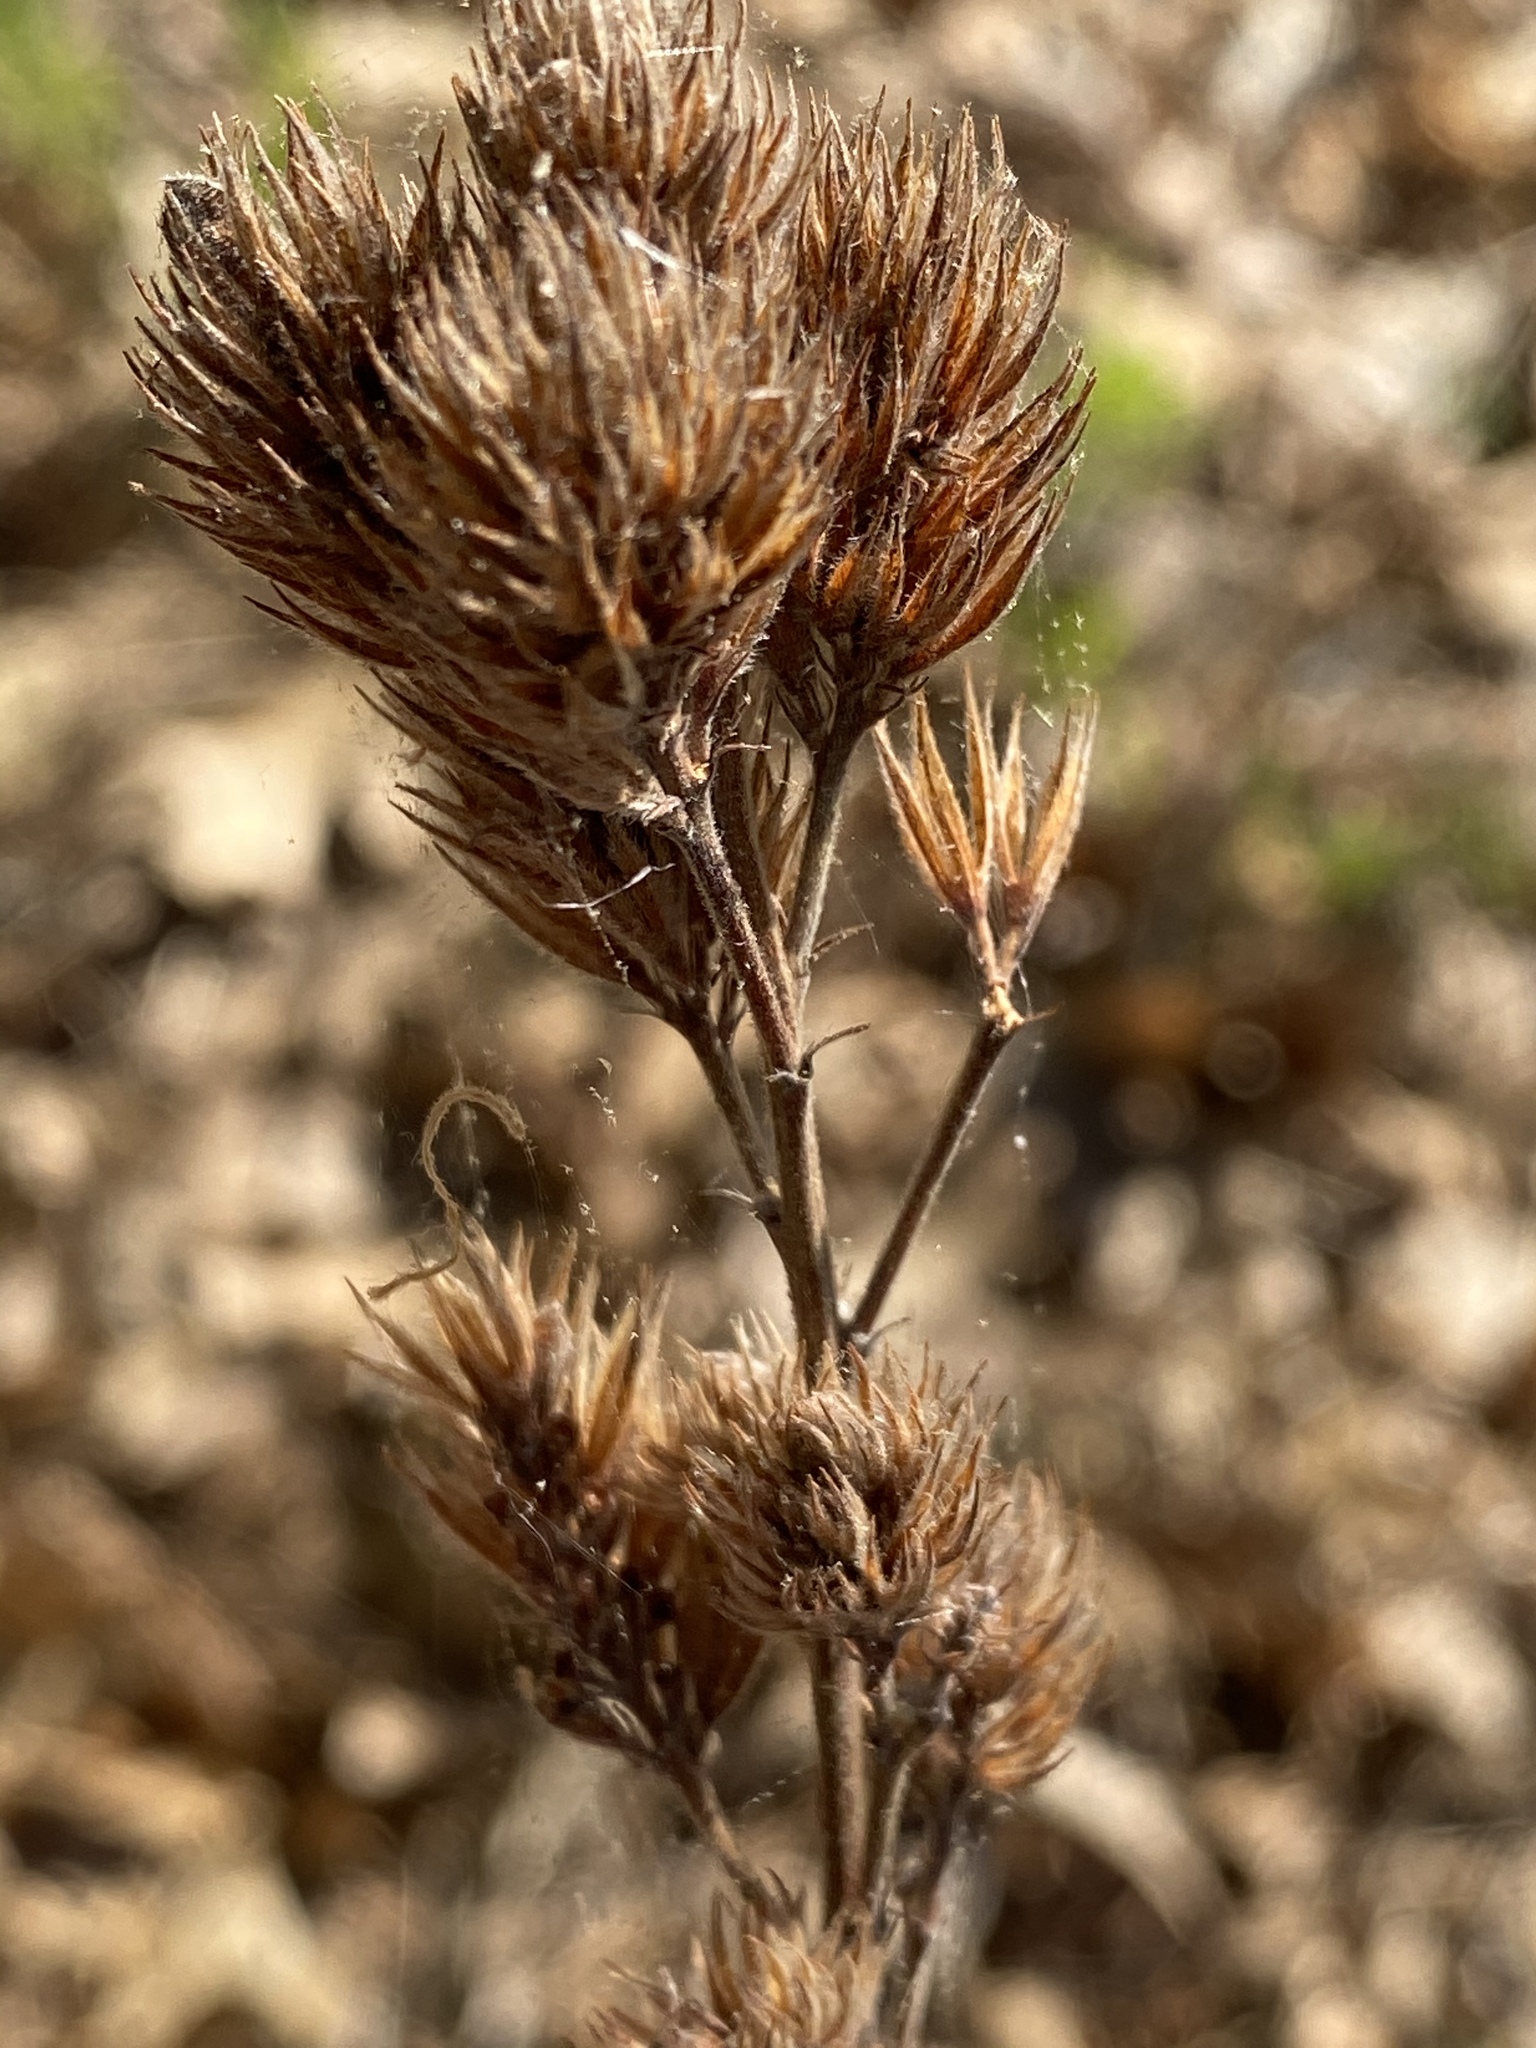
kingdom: Plantae
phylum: Tracheophyta
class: Magnoliopsida
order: Fabales
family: Fabaceae
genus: Lespedeza
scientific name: Lespedeza capitata
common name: Dusty clover
